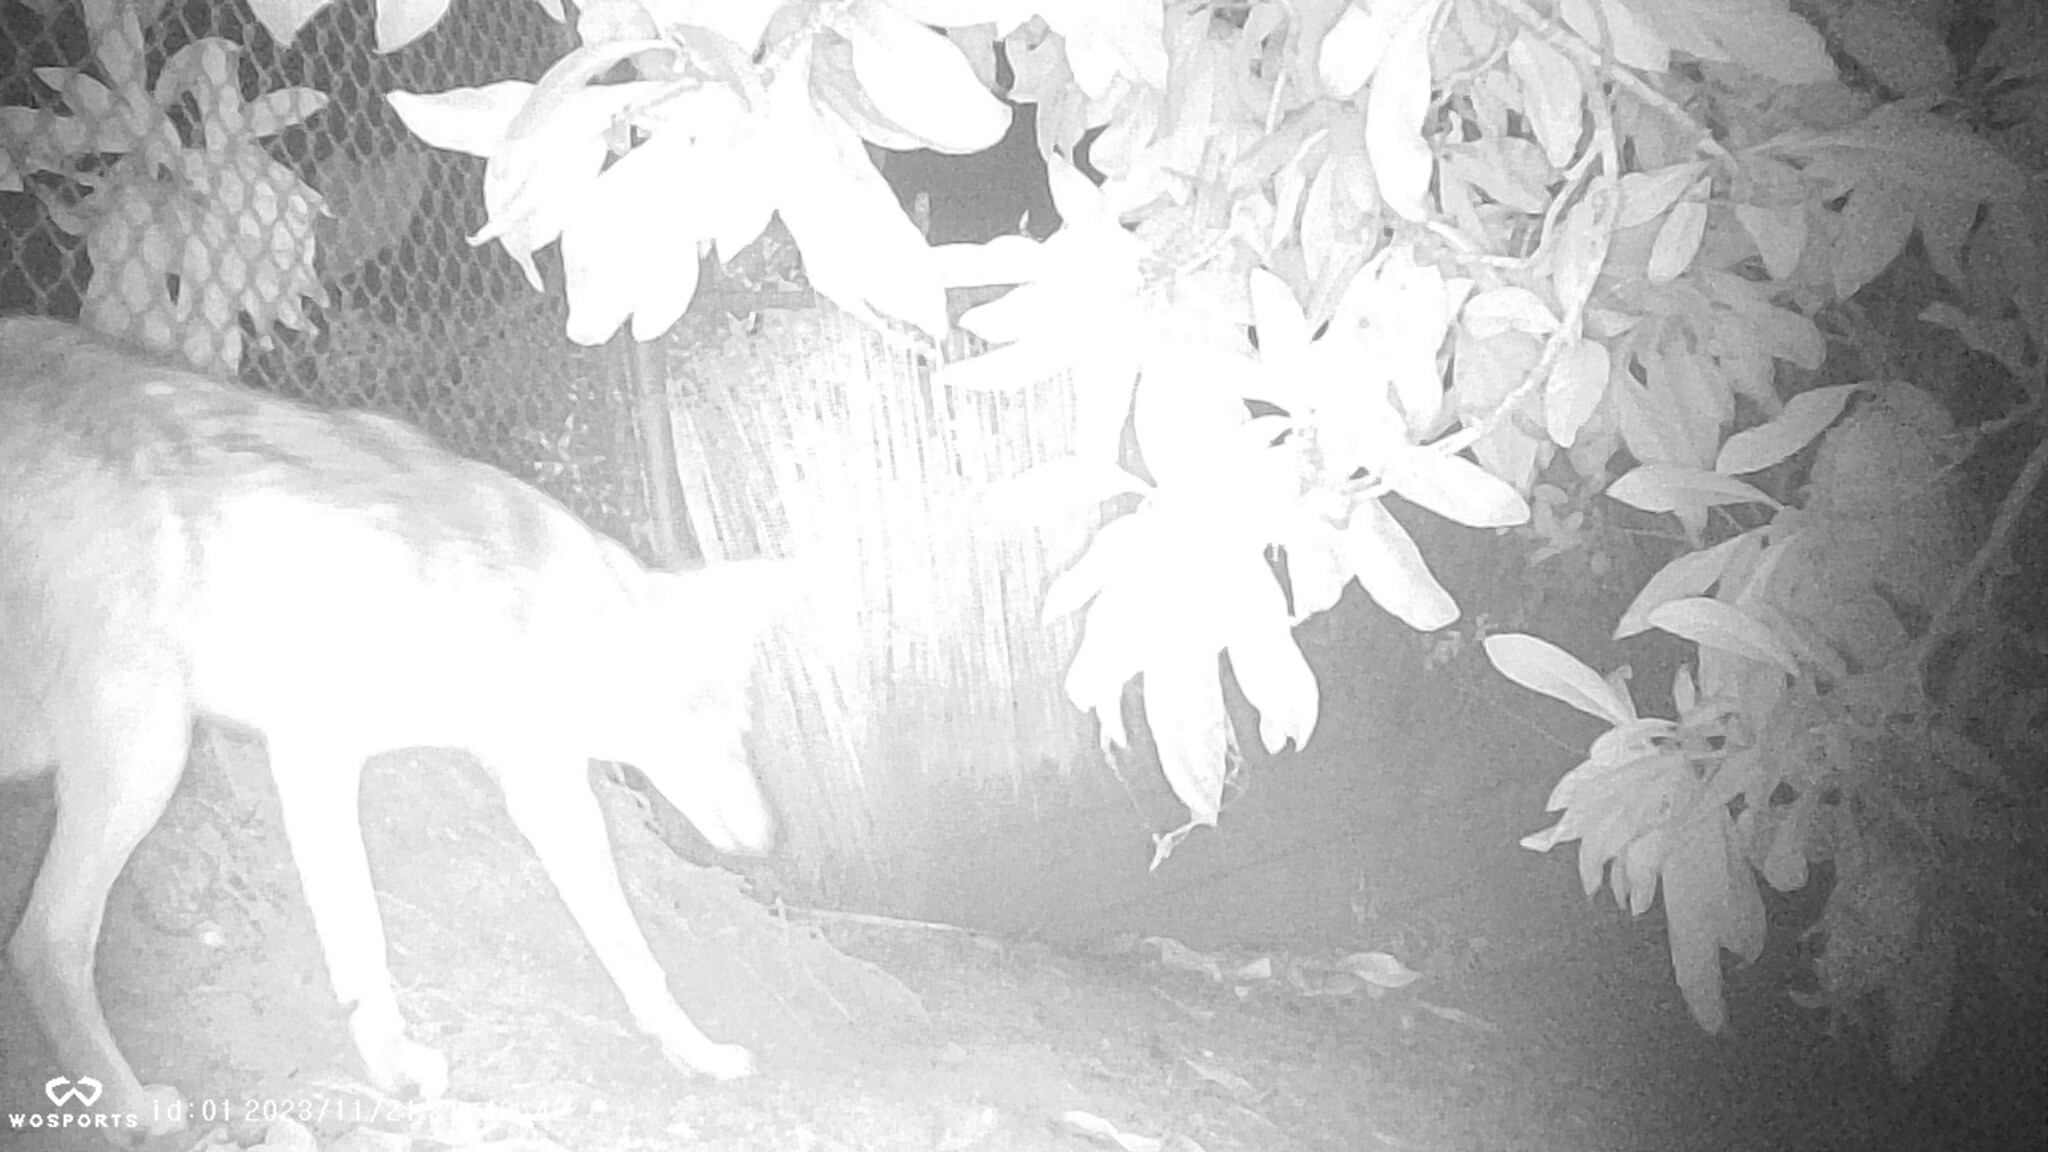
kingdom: Animalia
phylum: Chordata
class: Mammalia
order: Carnivora
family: Canidae
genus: Canis
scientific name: Canis latrans
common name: Coyote
